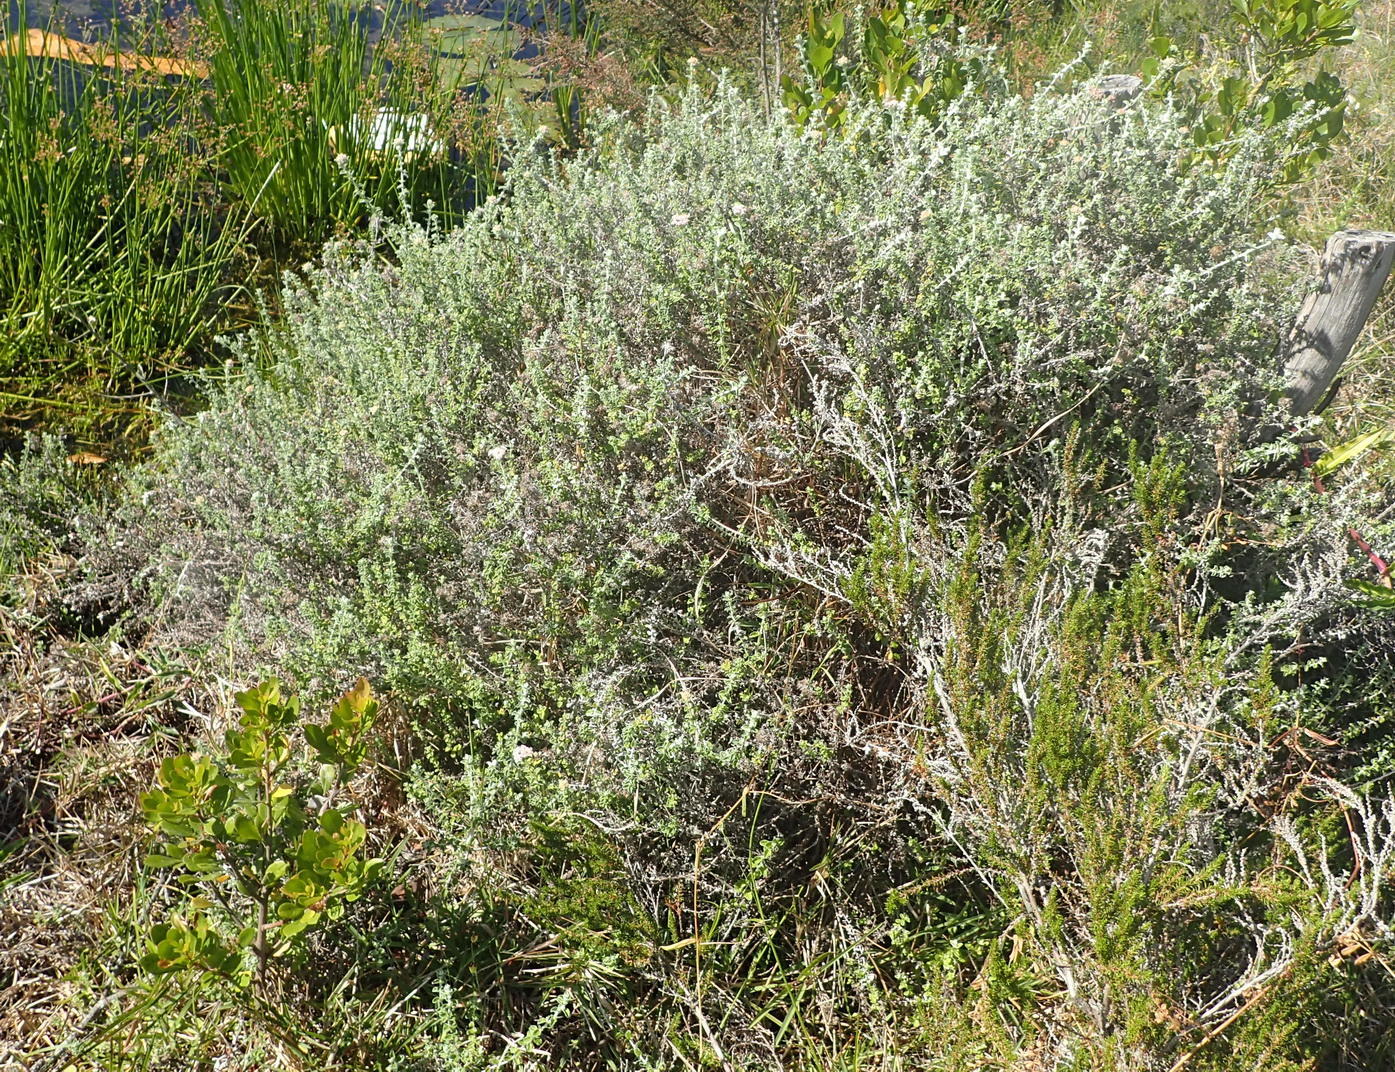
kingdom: Plantae
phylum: Tracheophyta
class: Magnoliopsida
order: Asterales
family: Asteraceae
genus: Plecostachys
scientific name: Plecostachys serpyllifolia
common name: Petite licorice
